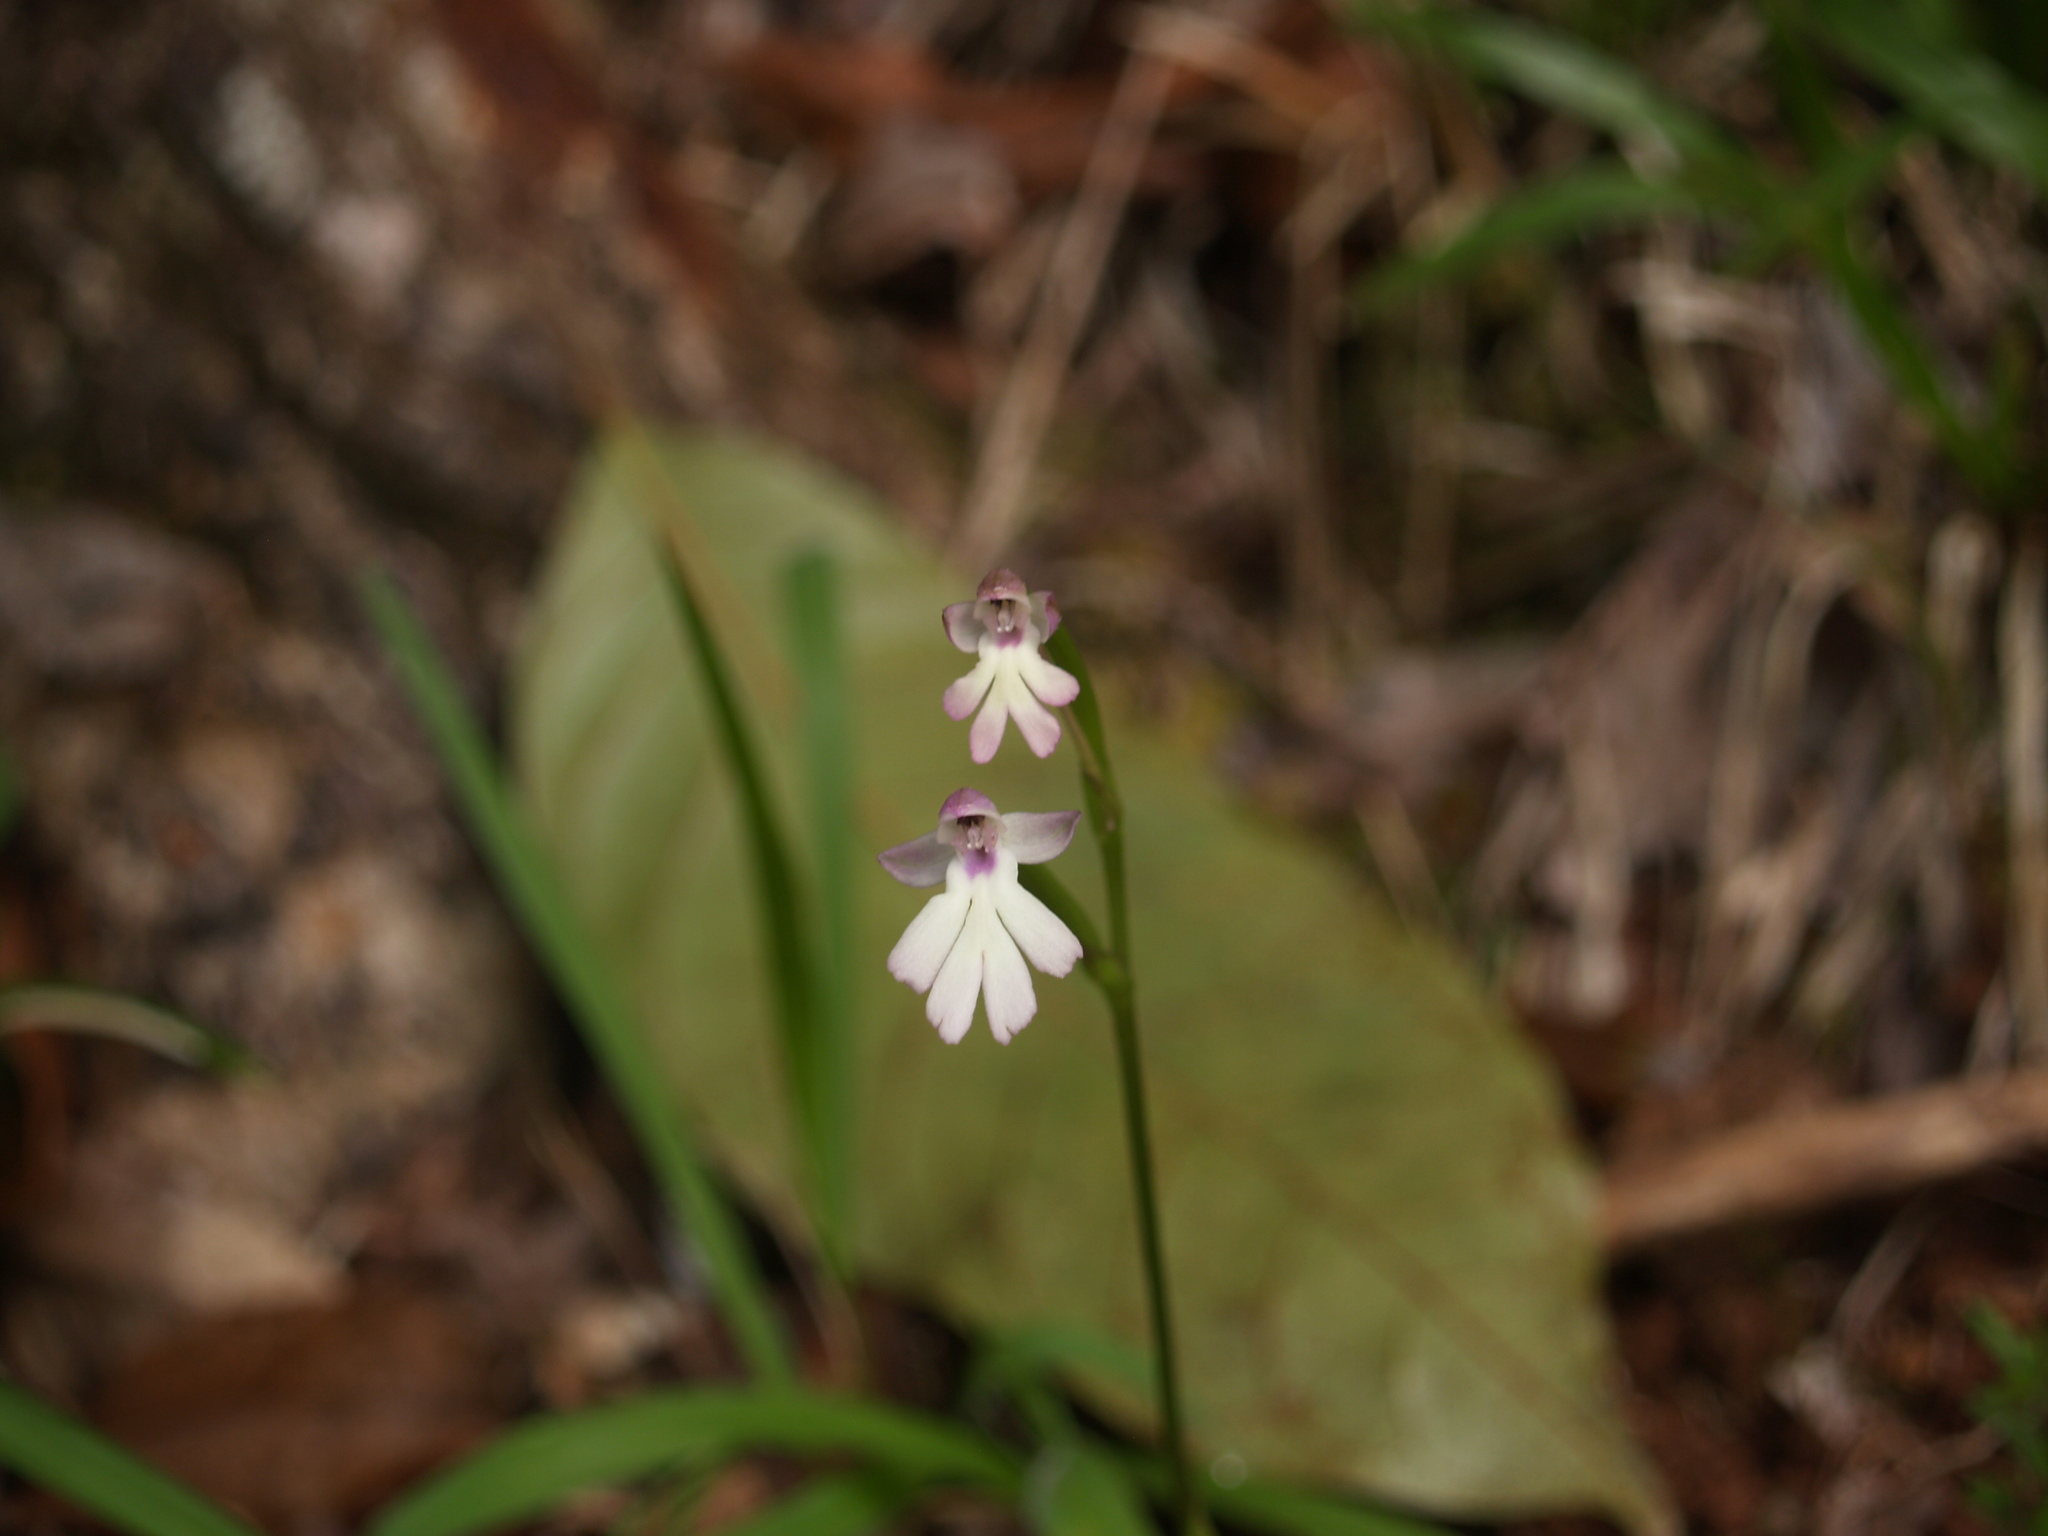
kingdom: Plantae
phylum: Tracheophyta
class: Liliopsida
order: Asparagales
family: Orchidaceae
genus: Cynorkis
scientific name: Cynorkis fastigiata
